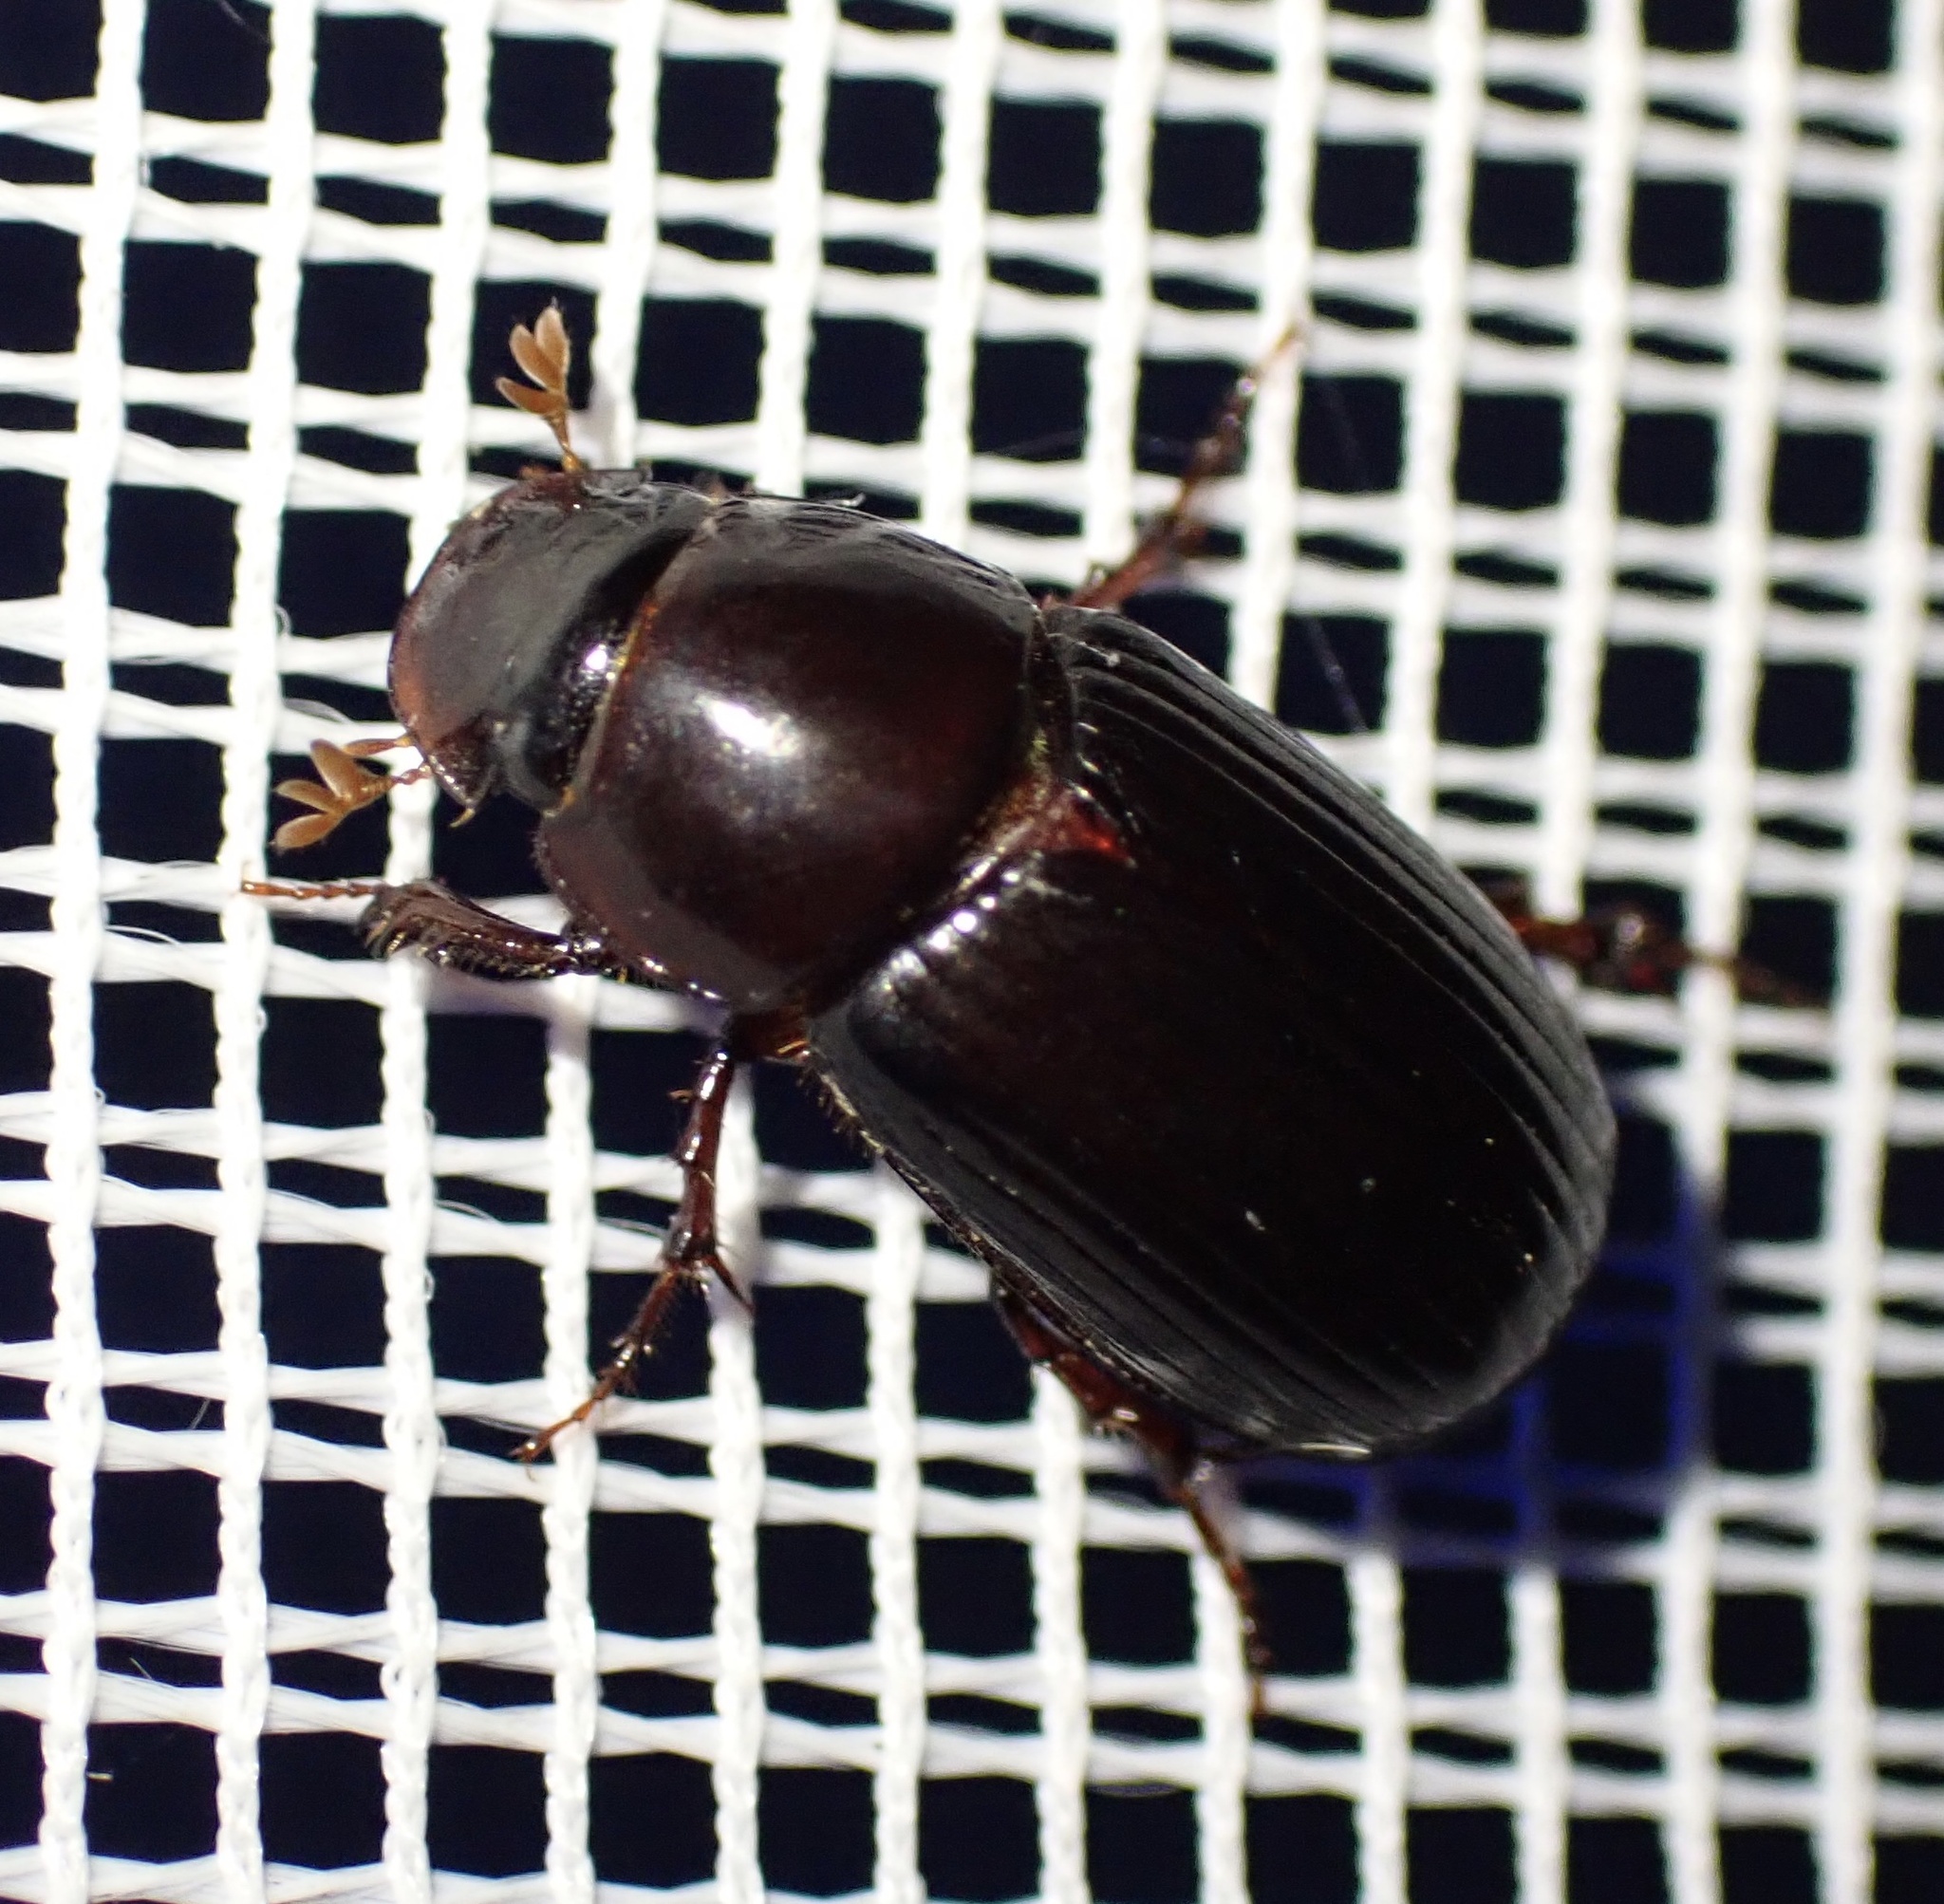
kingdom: Animalia
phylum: Arthropoda
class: Insecta
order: Coleoptera
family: Scarabaeidae
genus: Acrossus
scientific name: Acrossus rufipes
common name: Night-flying dung beetle
